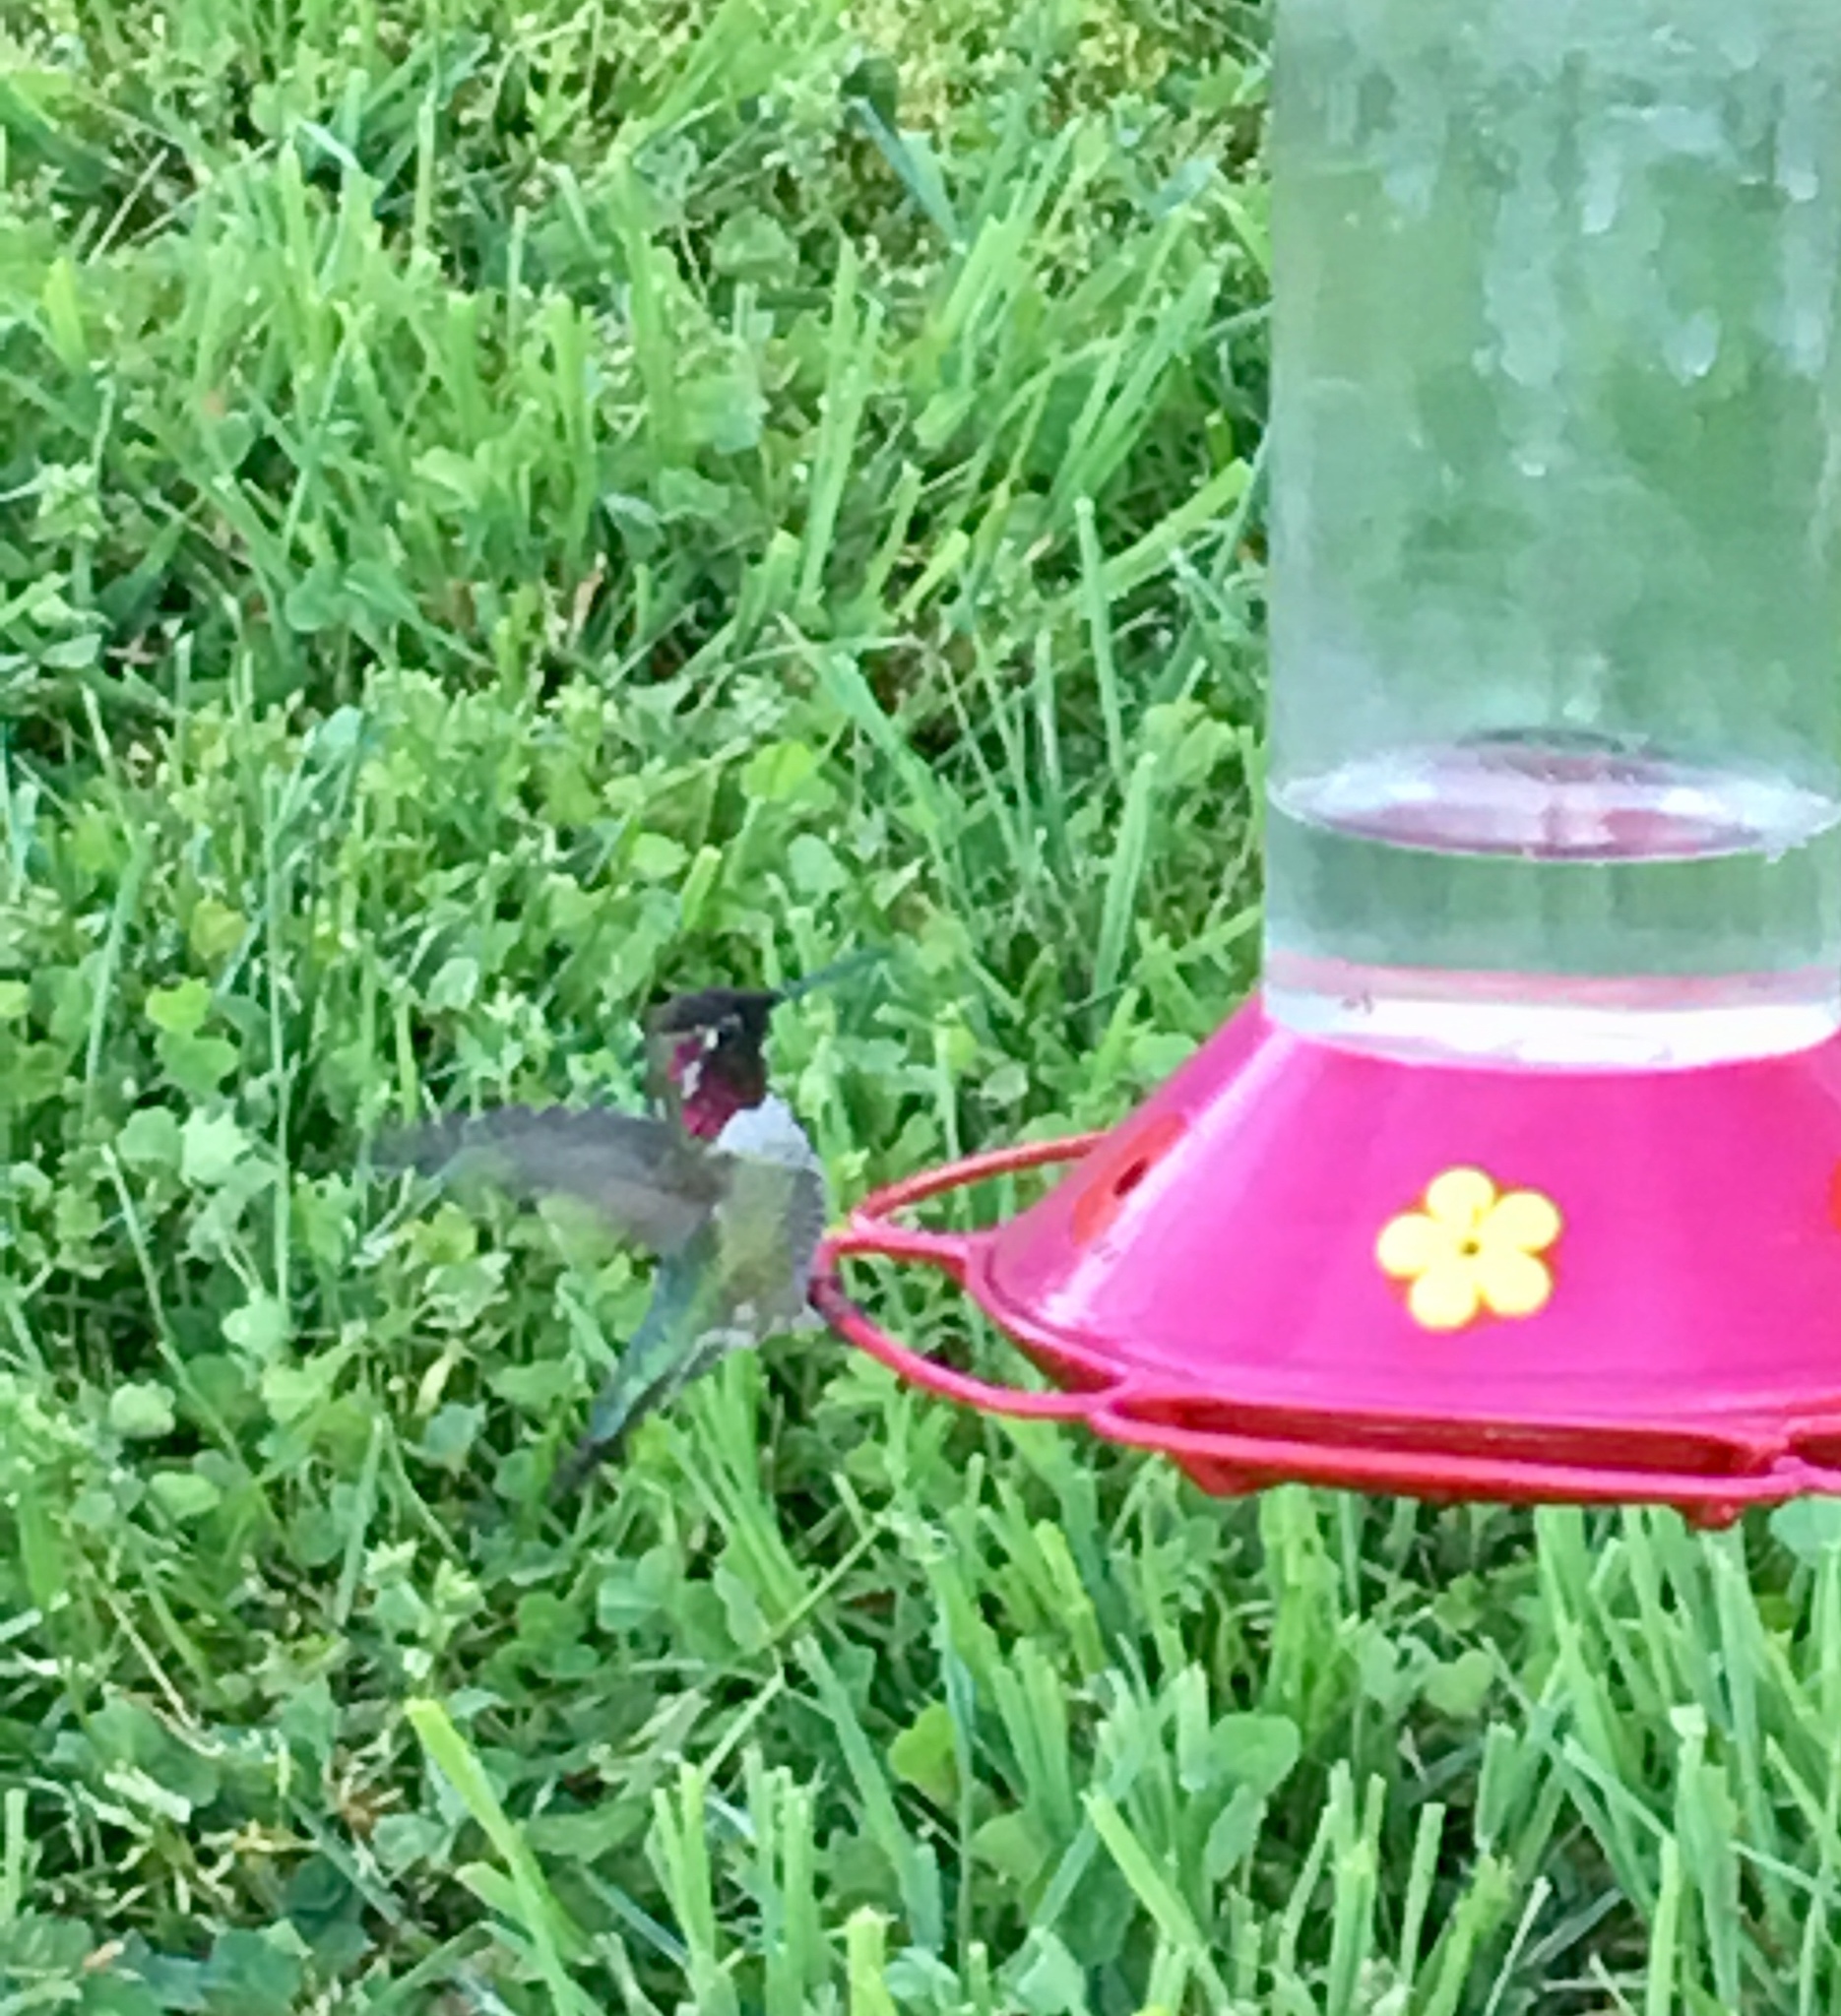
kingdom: Animalia
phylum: Chordata
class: Aves
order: Apodiformes
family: Trochilidae
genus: Calypte
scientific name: Calypte anna
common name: Anna's hummingbird
